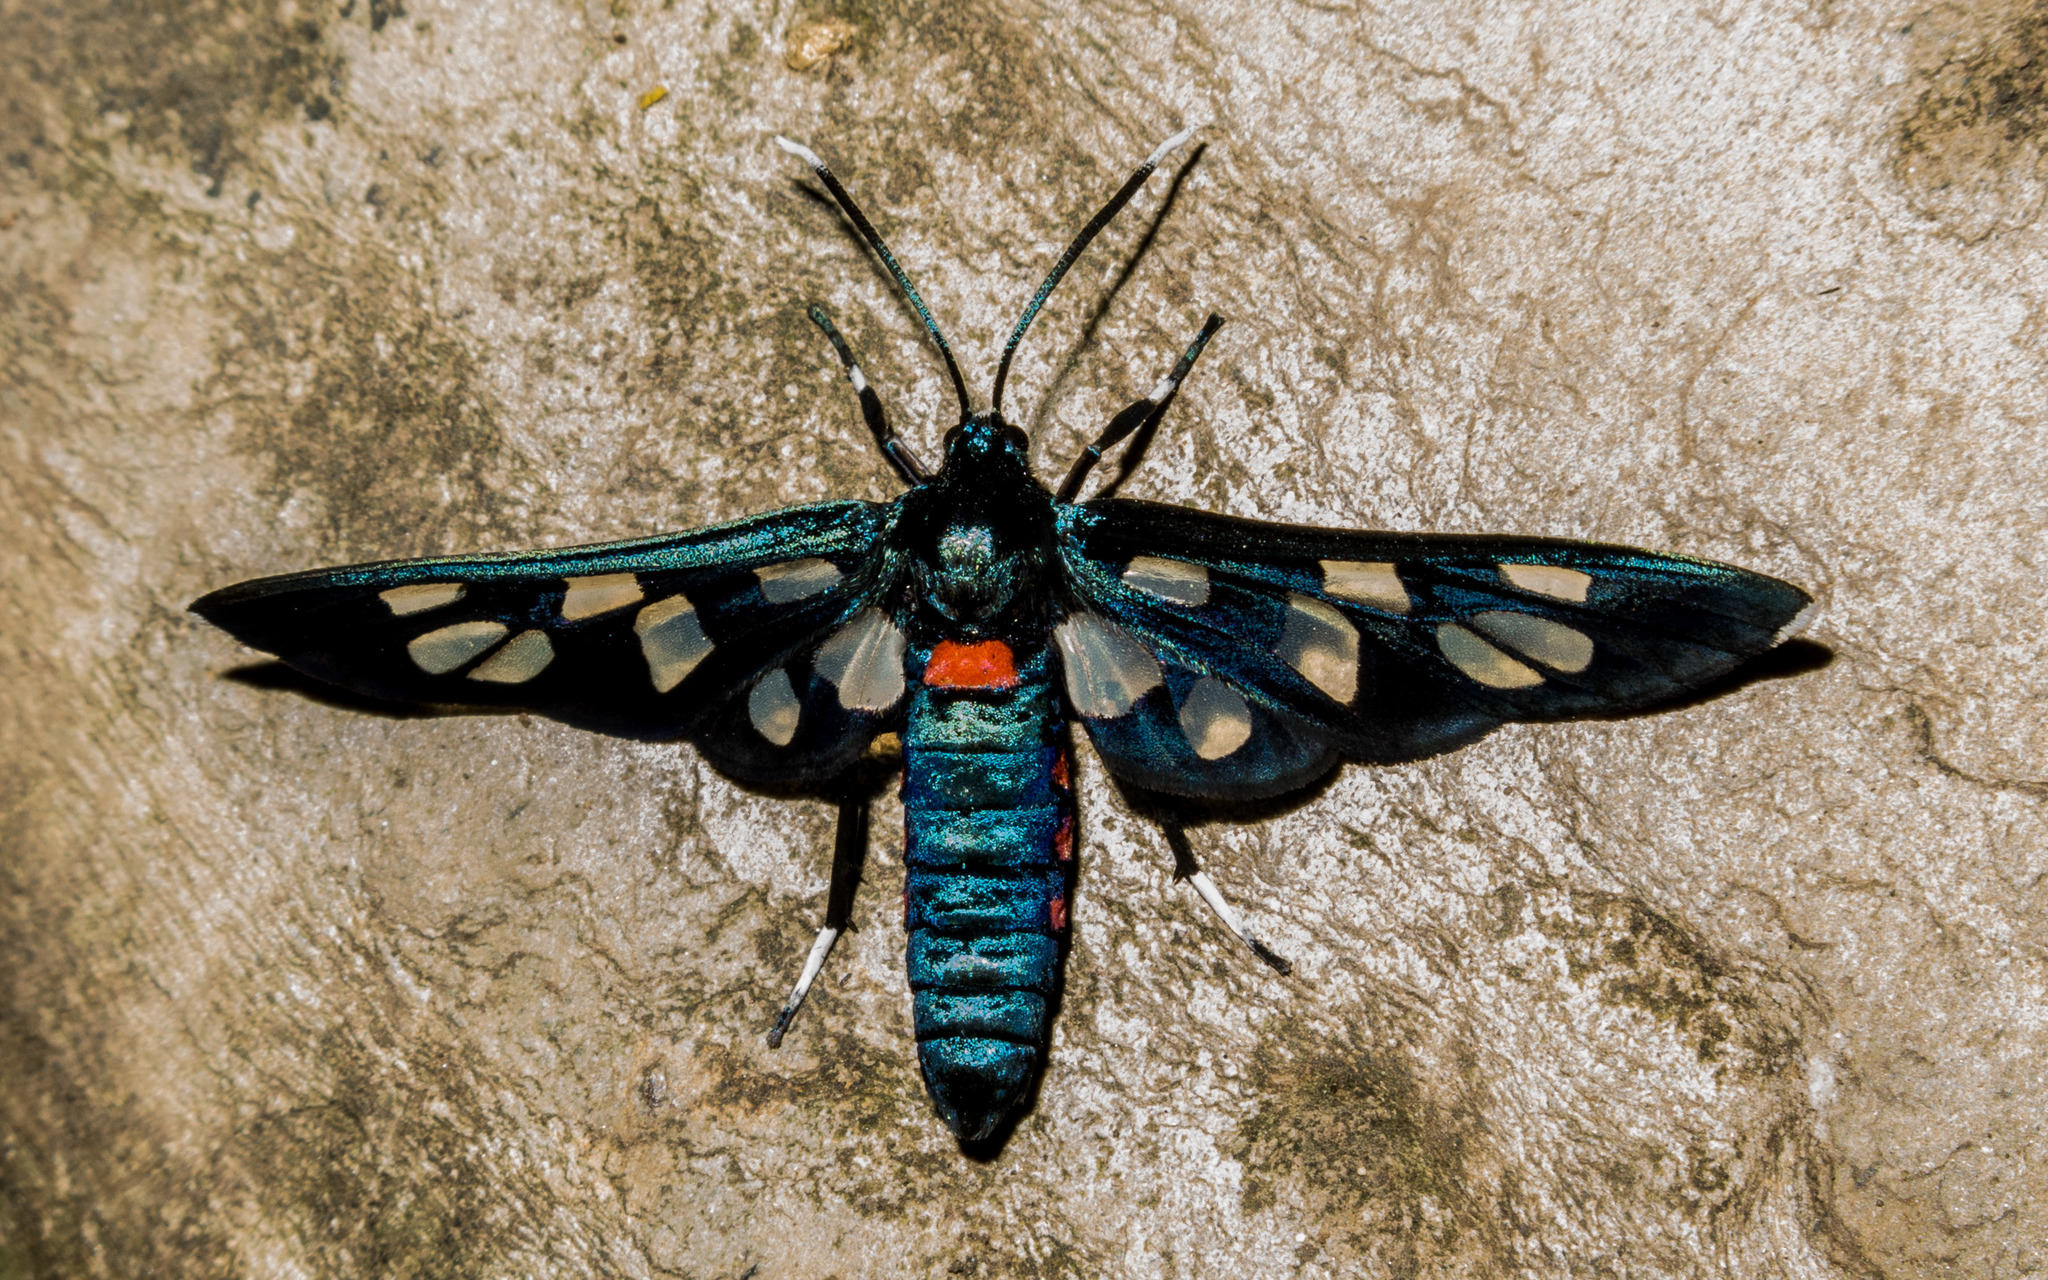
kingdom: Animalia
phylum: Arthropoda
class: Insecta
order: Lepidoptera
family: Erebidae
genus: Amata
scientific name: Amata kuhlweini
